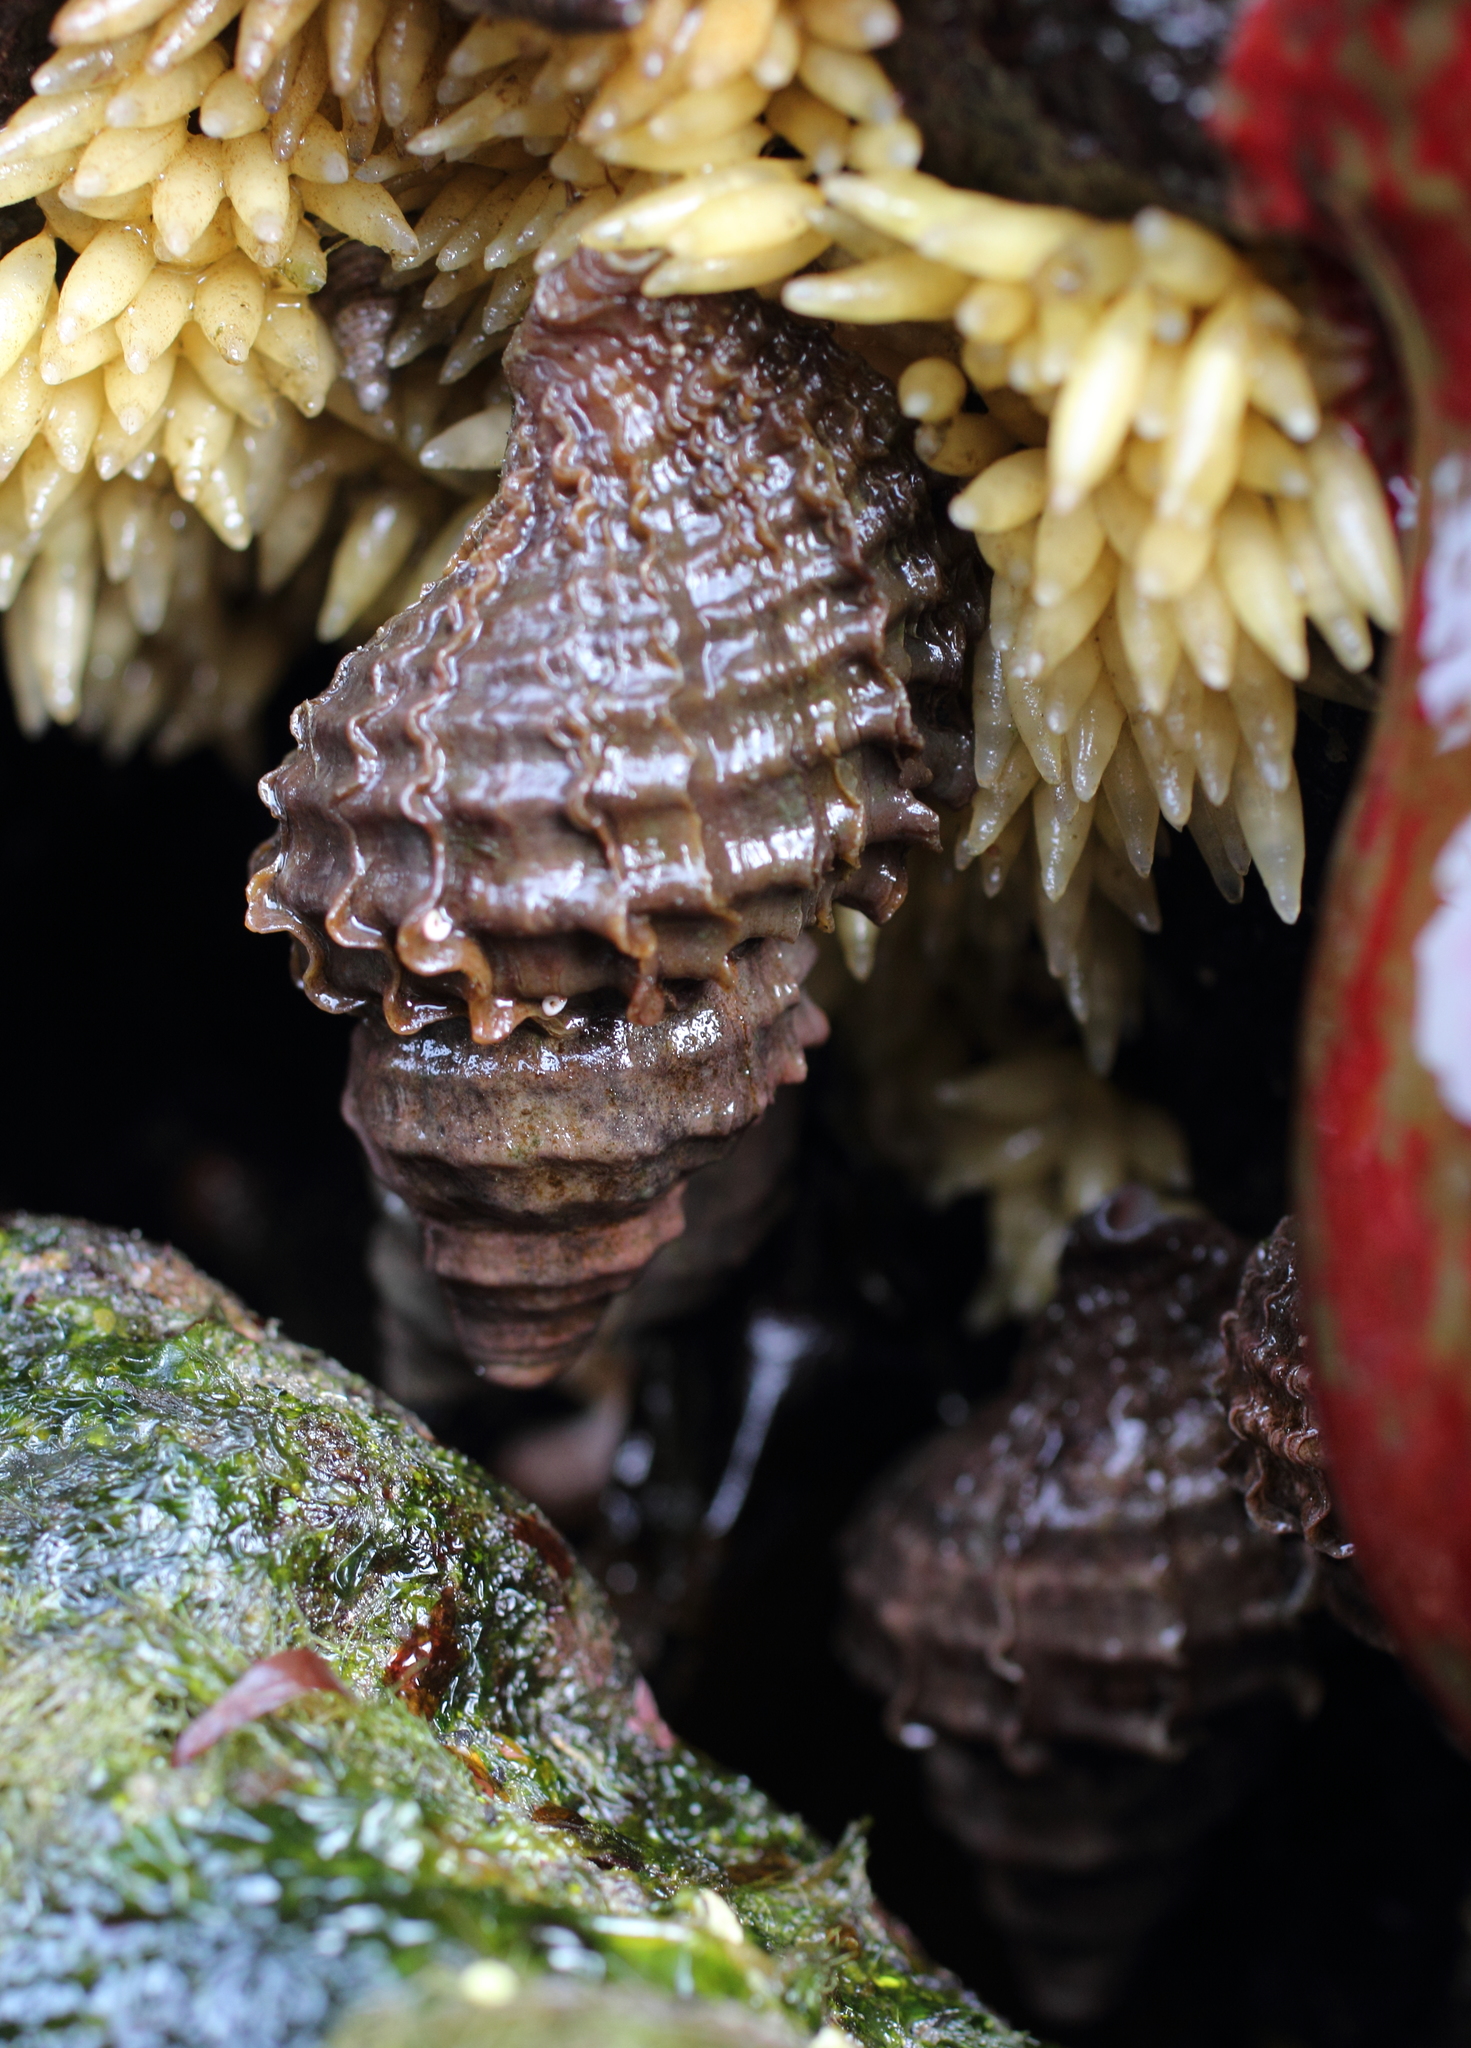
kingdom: Animalia
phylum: Mollusca
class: Gastropoda
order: Neogastropoda
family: Muricidae
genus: Nucella
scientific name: Nucella lamellosa
